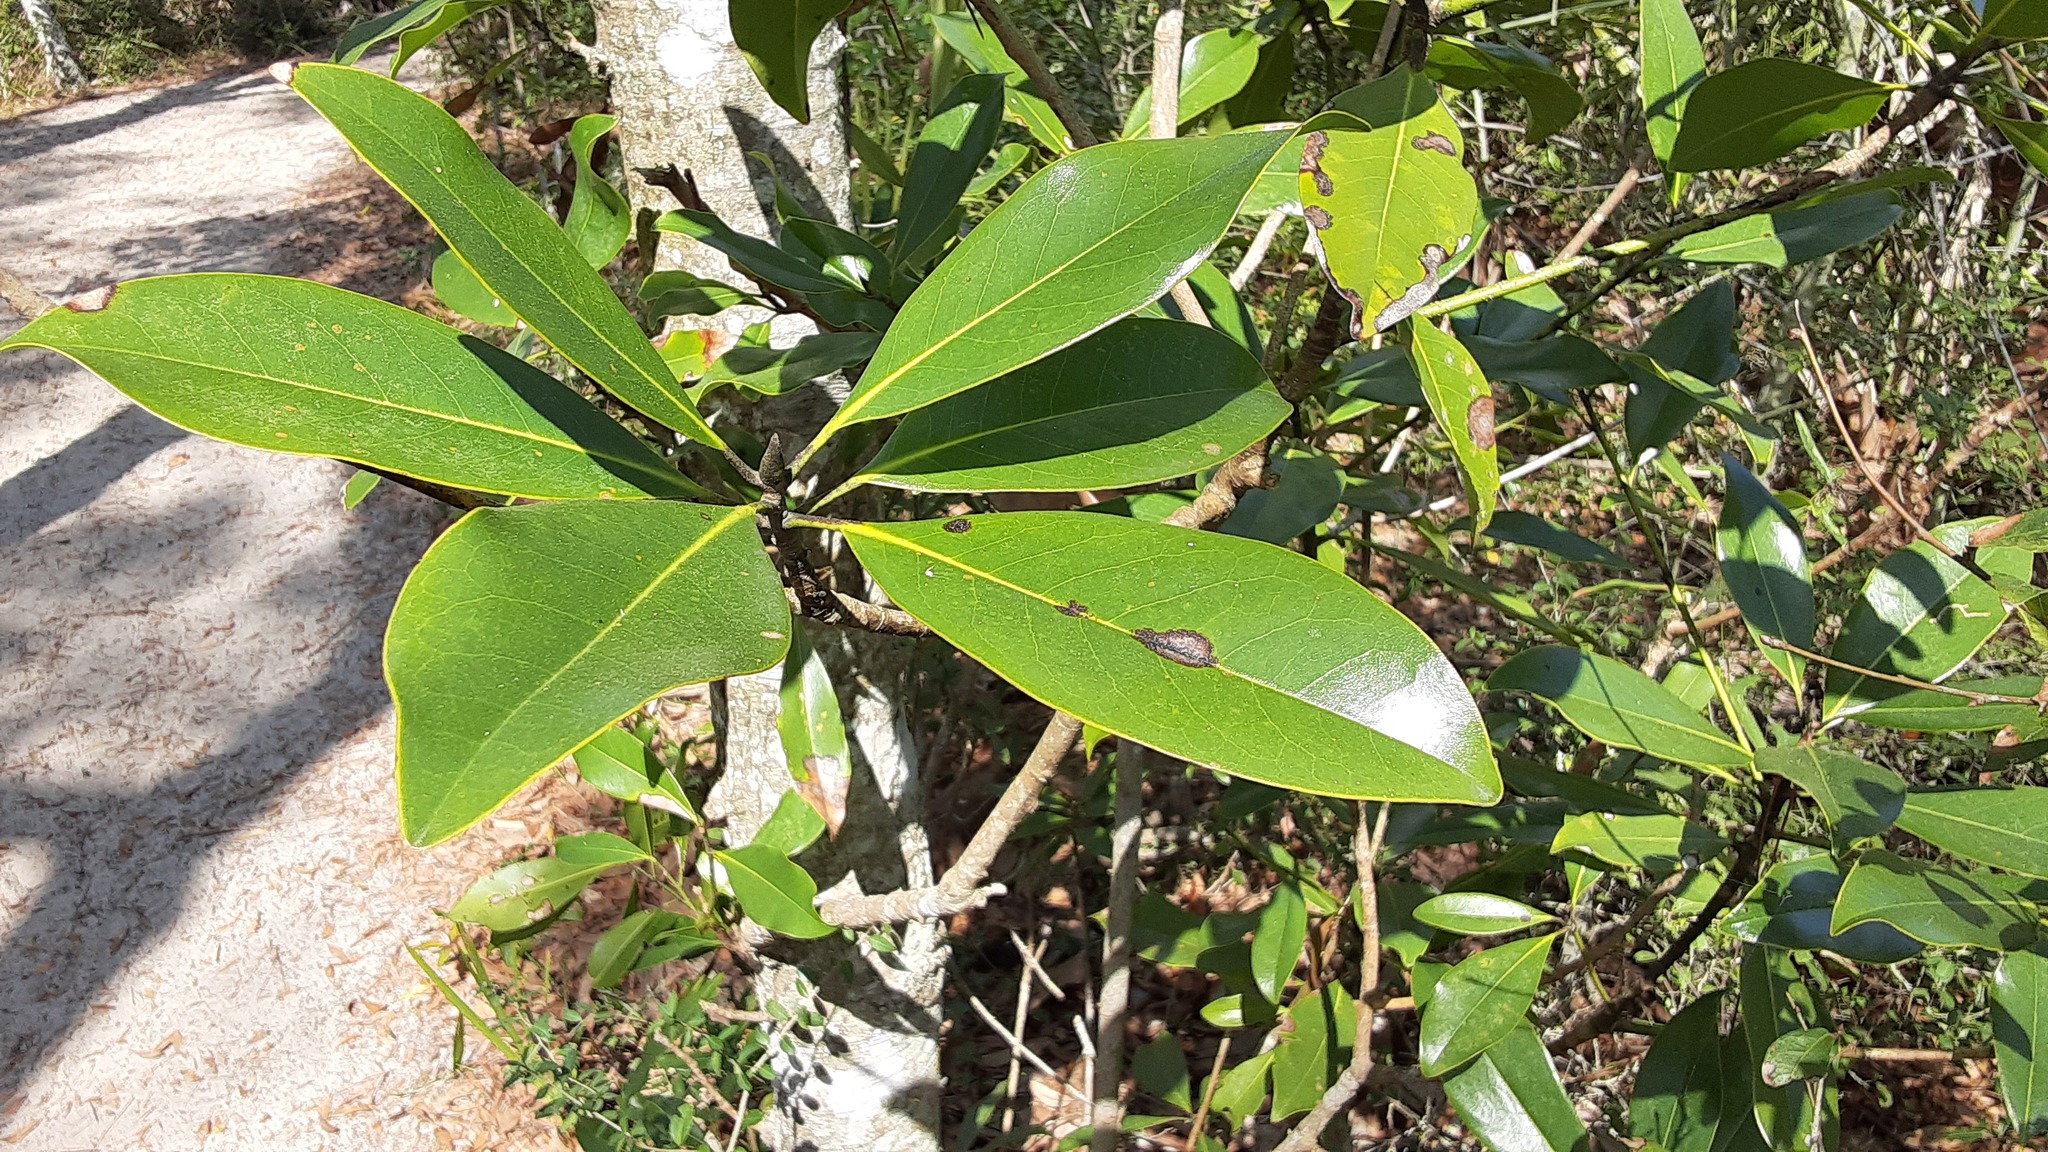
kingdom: Plantae
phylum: Tracheophyta
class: Magnoliopsida
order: Magnoliales
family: Magnoliaceae
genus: Magnolia
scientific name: Magnolia grandiflora
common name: Southern magnolia
